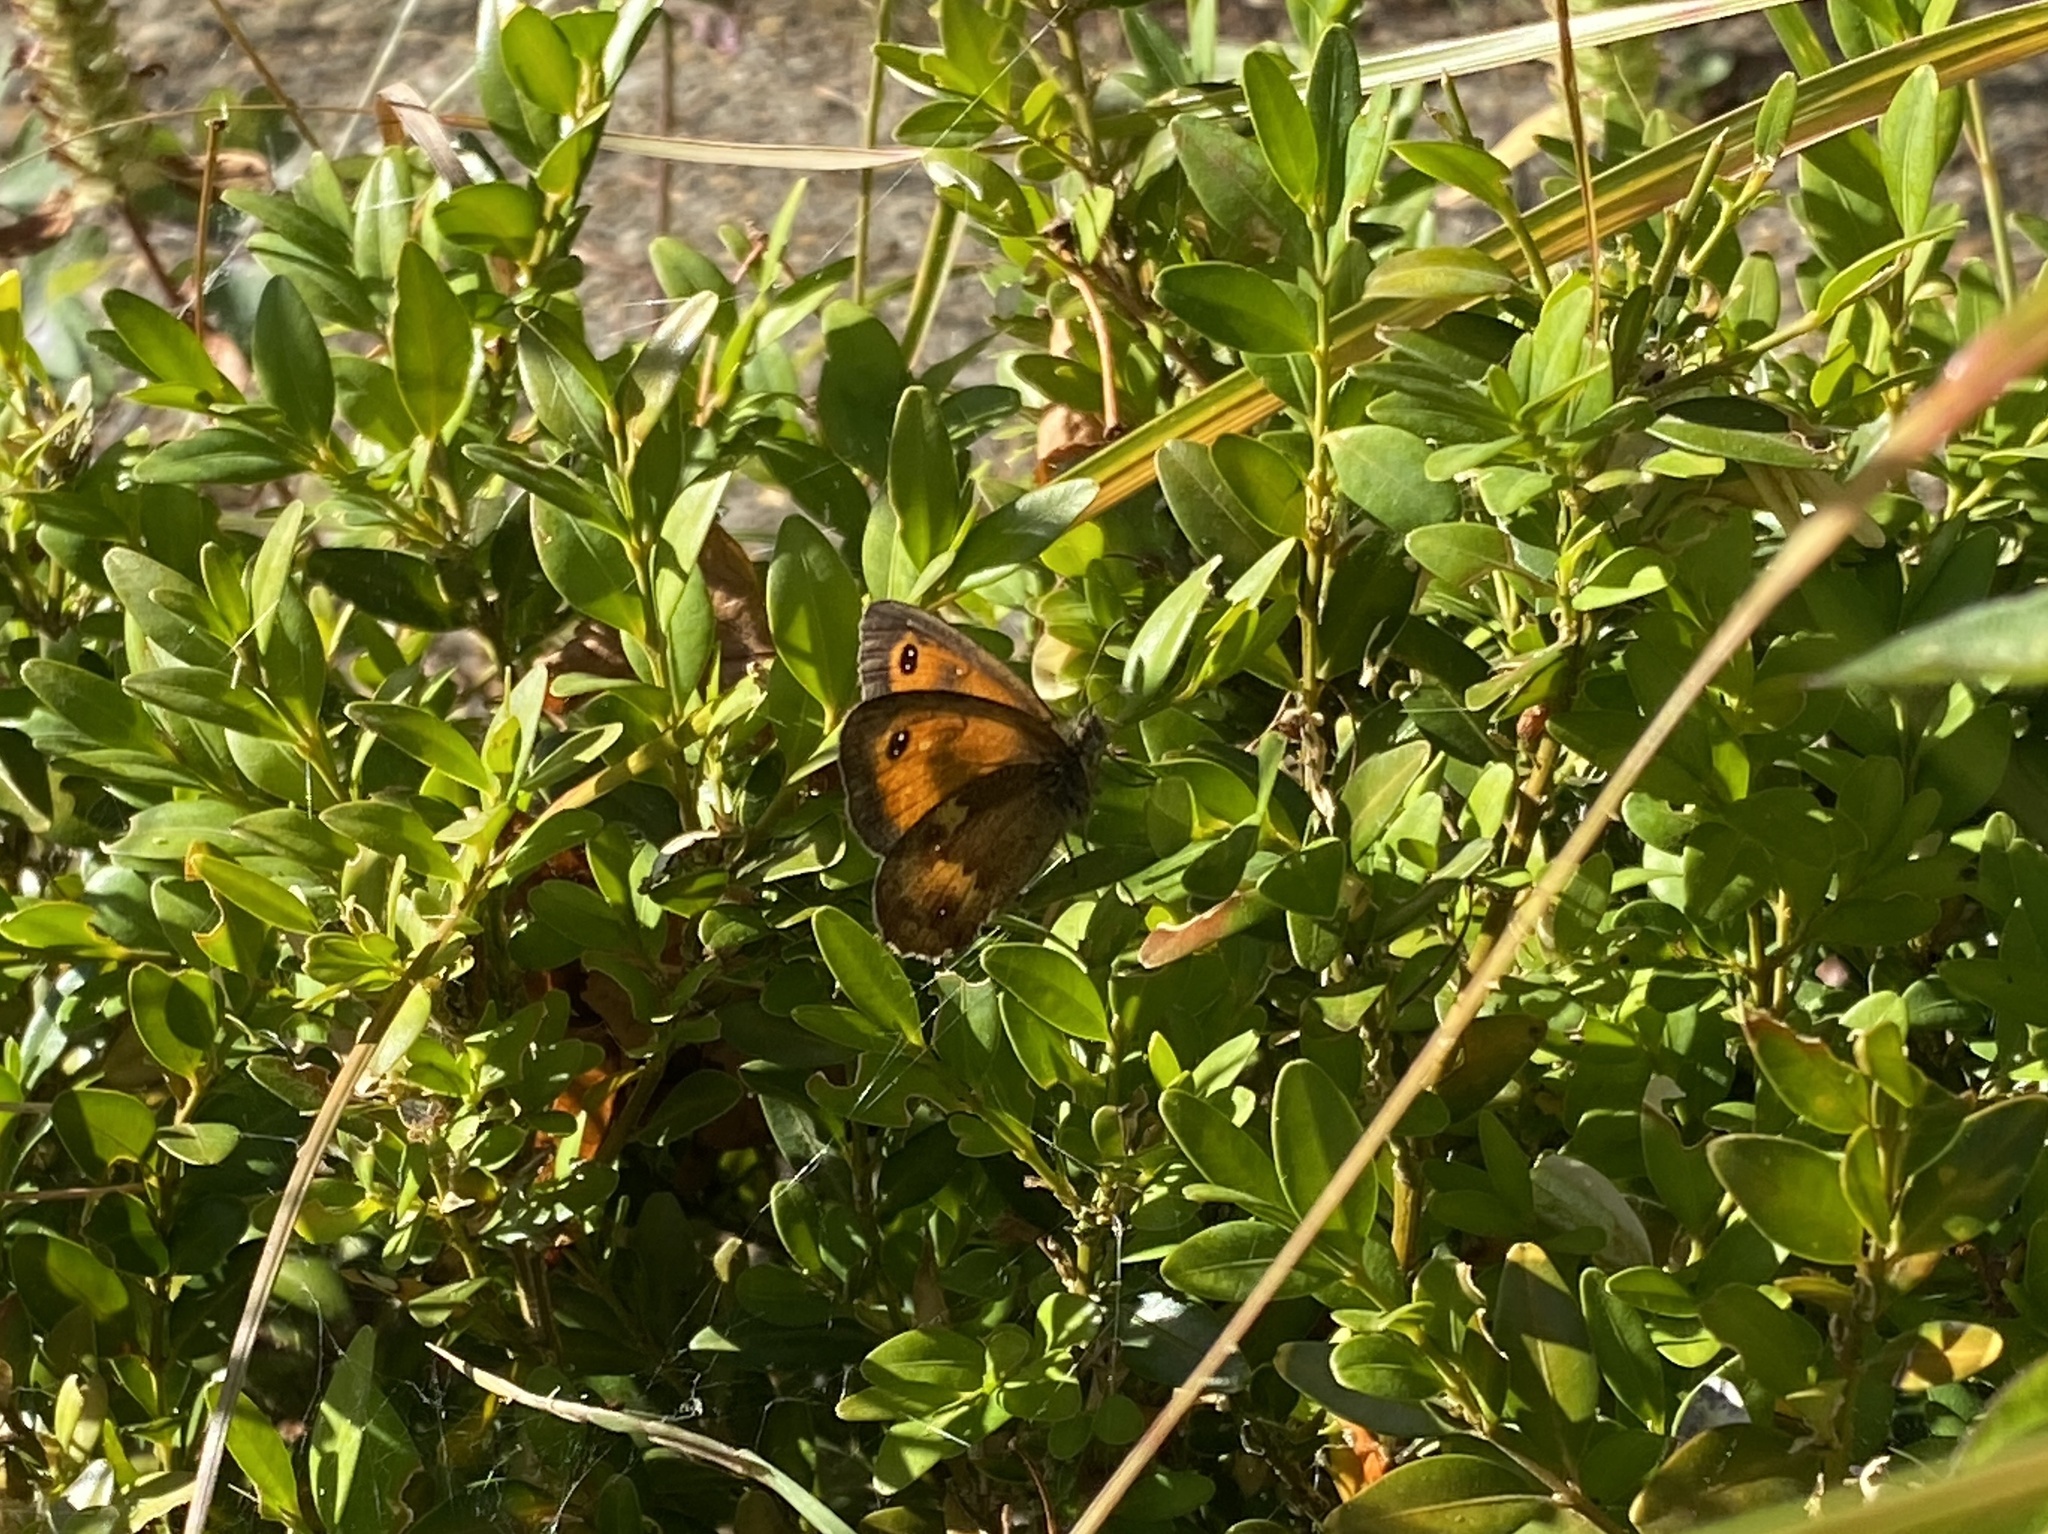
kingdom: Animalia
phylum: Arthropoda
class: Insecta
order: Lepidoptera
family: Nymphalidae
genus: Pyronia
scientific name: Pyronia tithonus
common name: Gatekeeper
